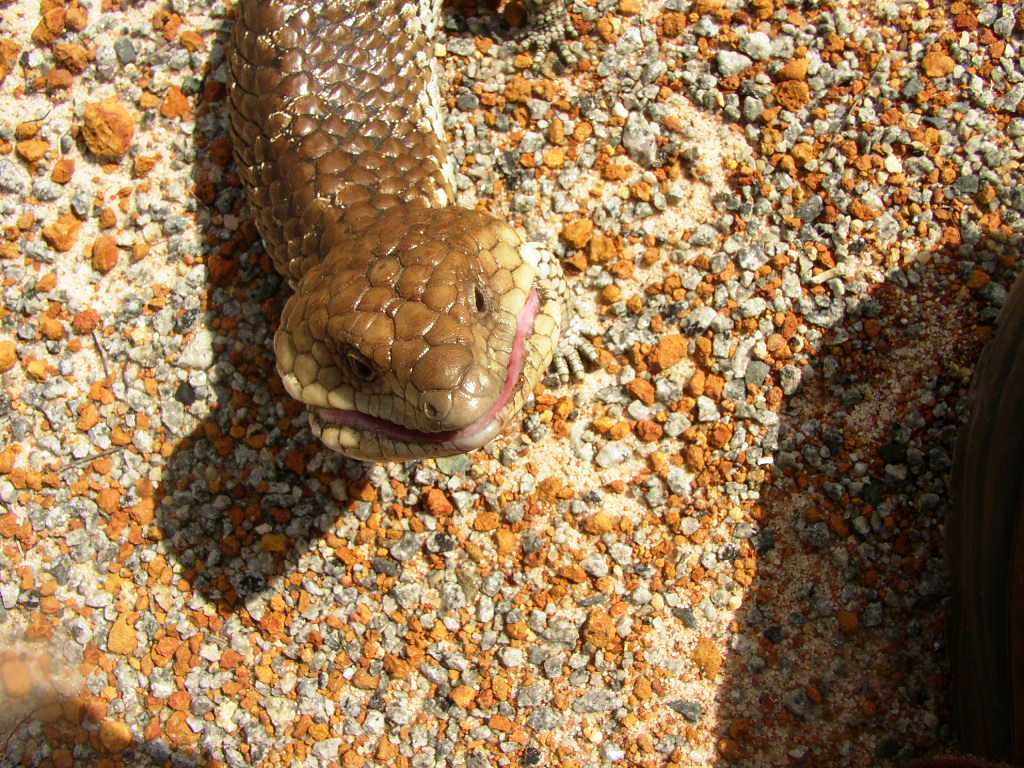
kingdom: Animalia
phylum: Chordata
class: Squamata
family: Scincidae
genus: Tiliqua
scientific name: Tiliqua rugosa
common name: Pinecone lizard
